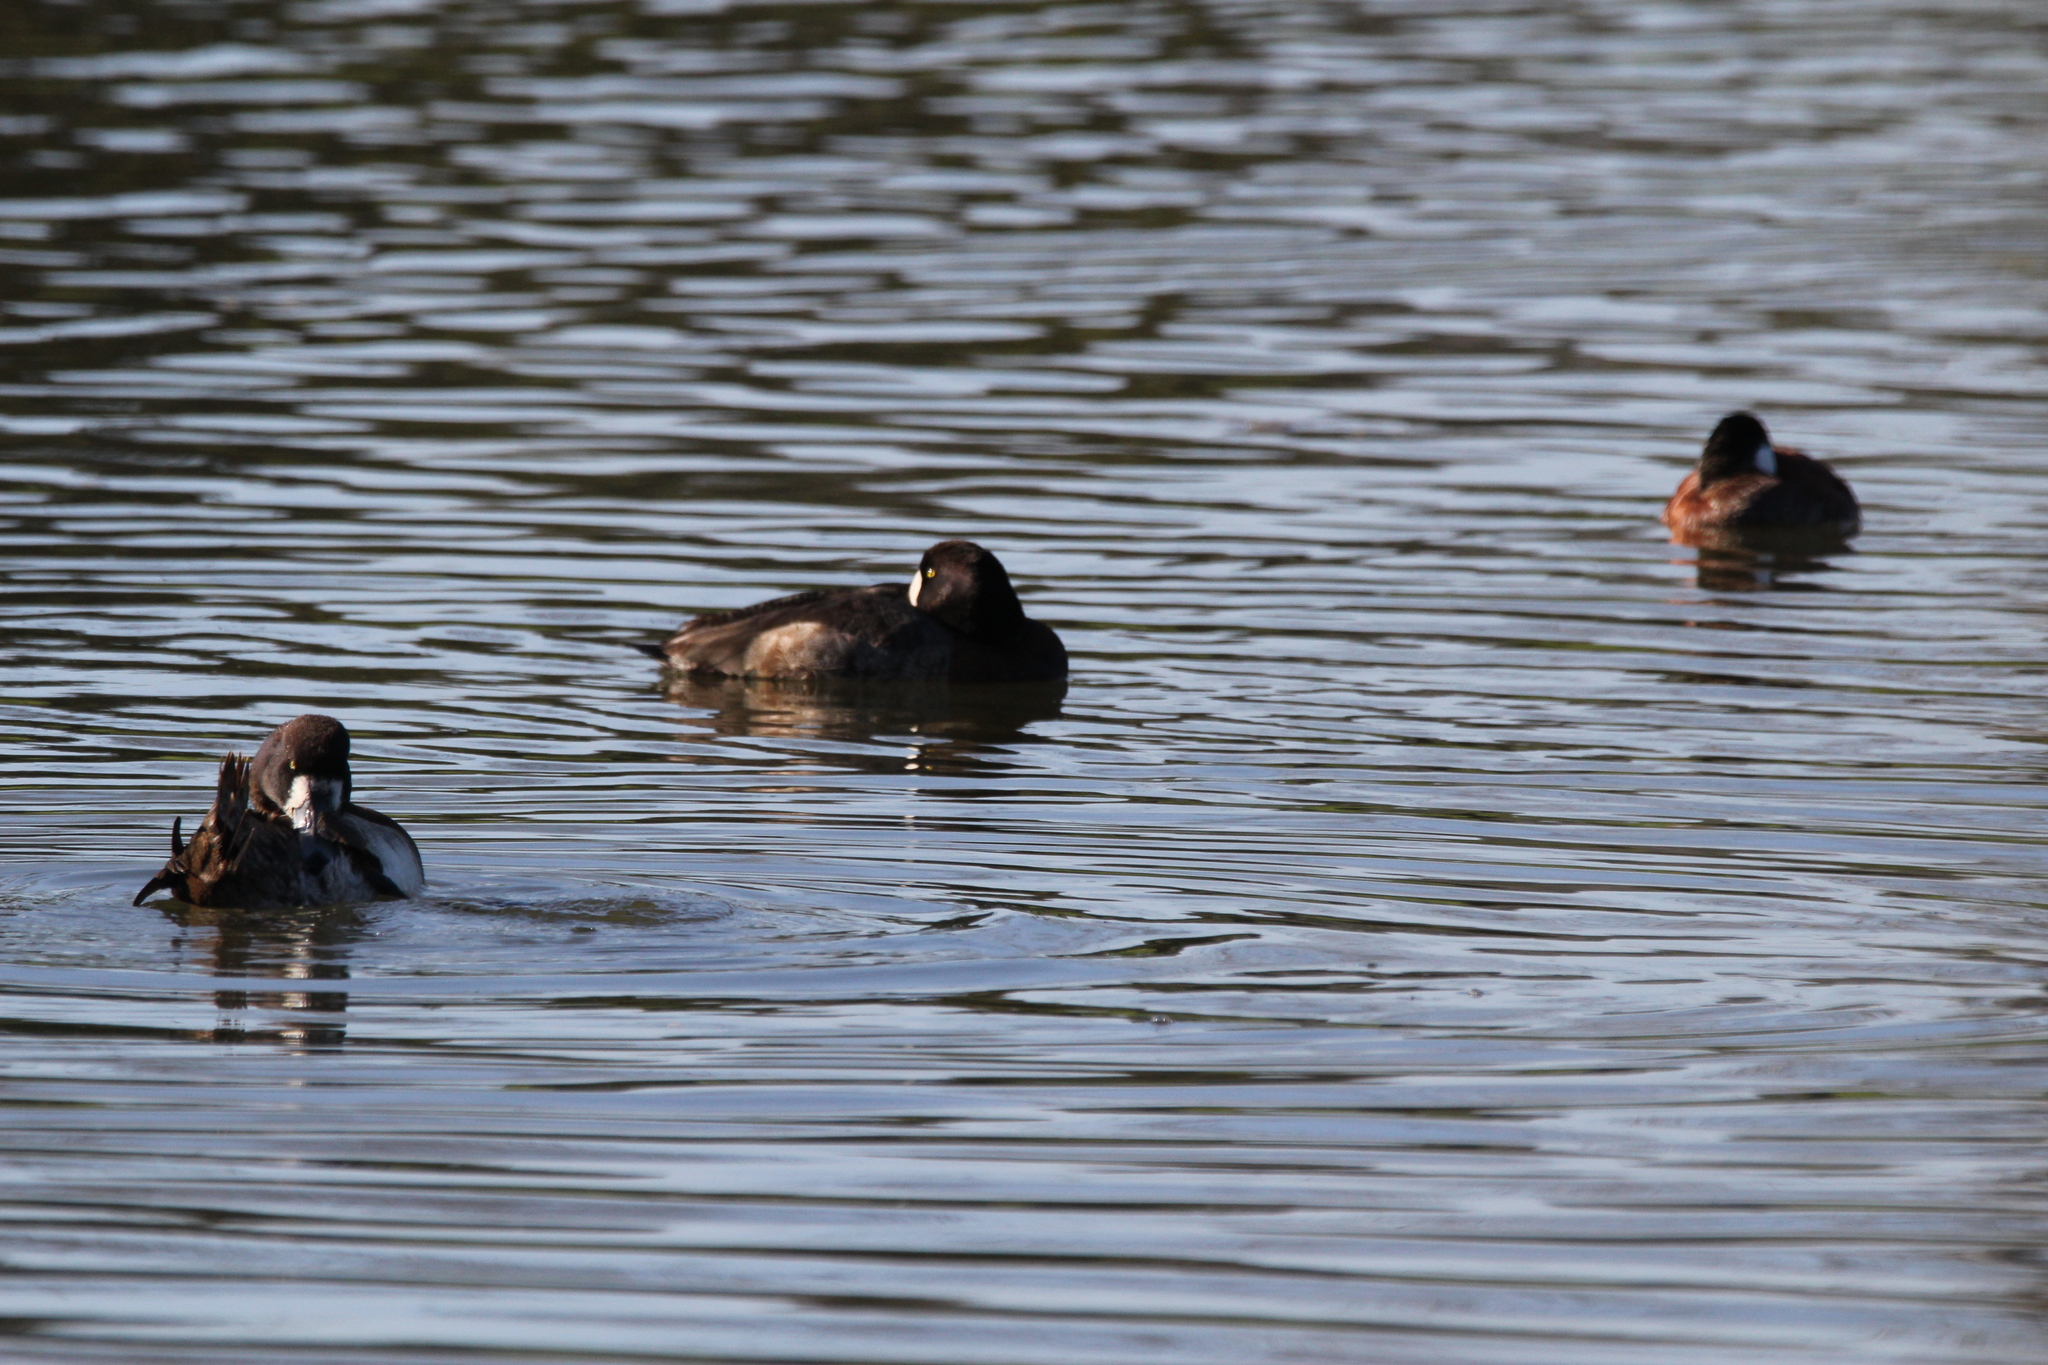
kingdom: Animalia
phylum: Chordata
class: Aves
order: Anseriformes
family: Anatidae
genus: Aythya
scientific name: Aythya marila
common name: Greater scaup
